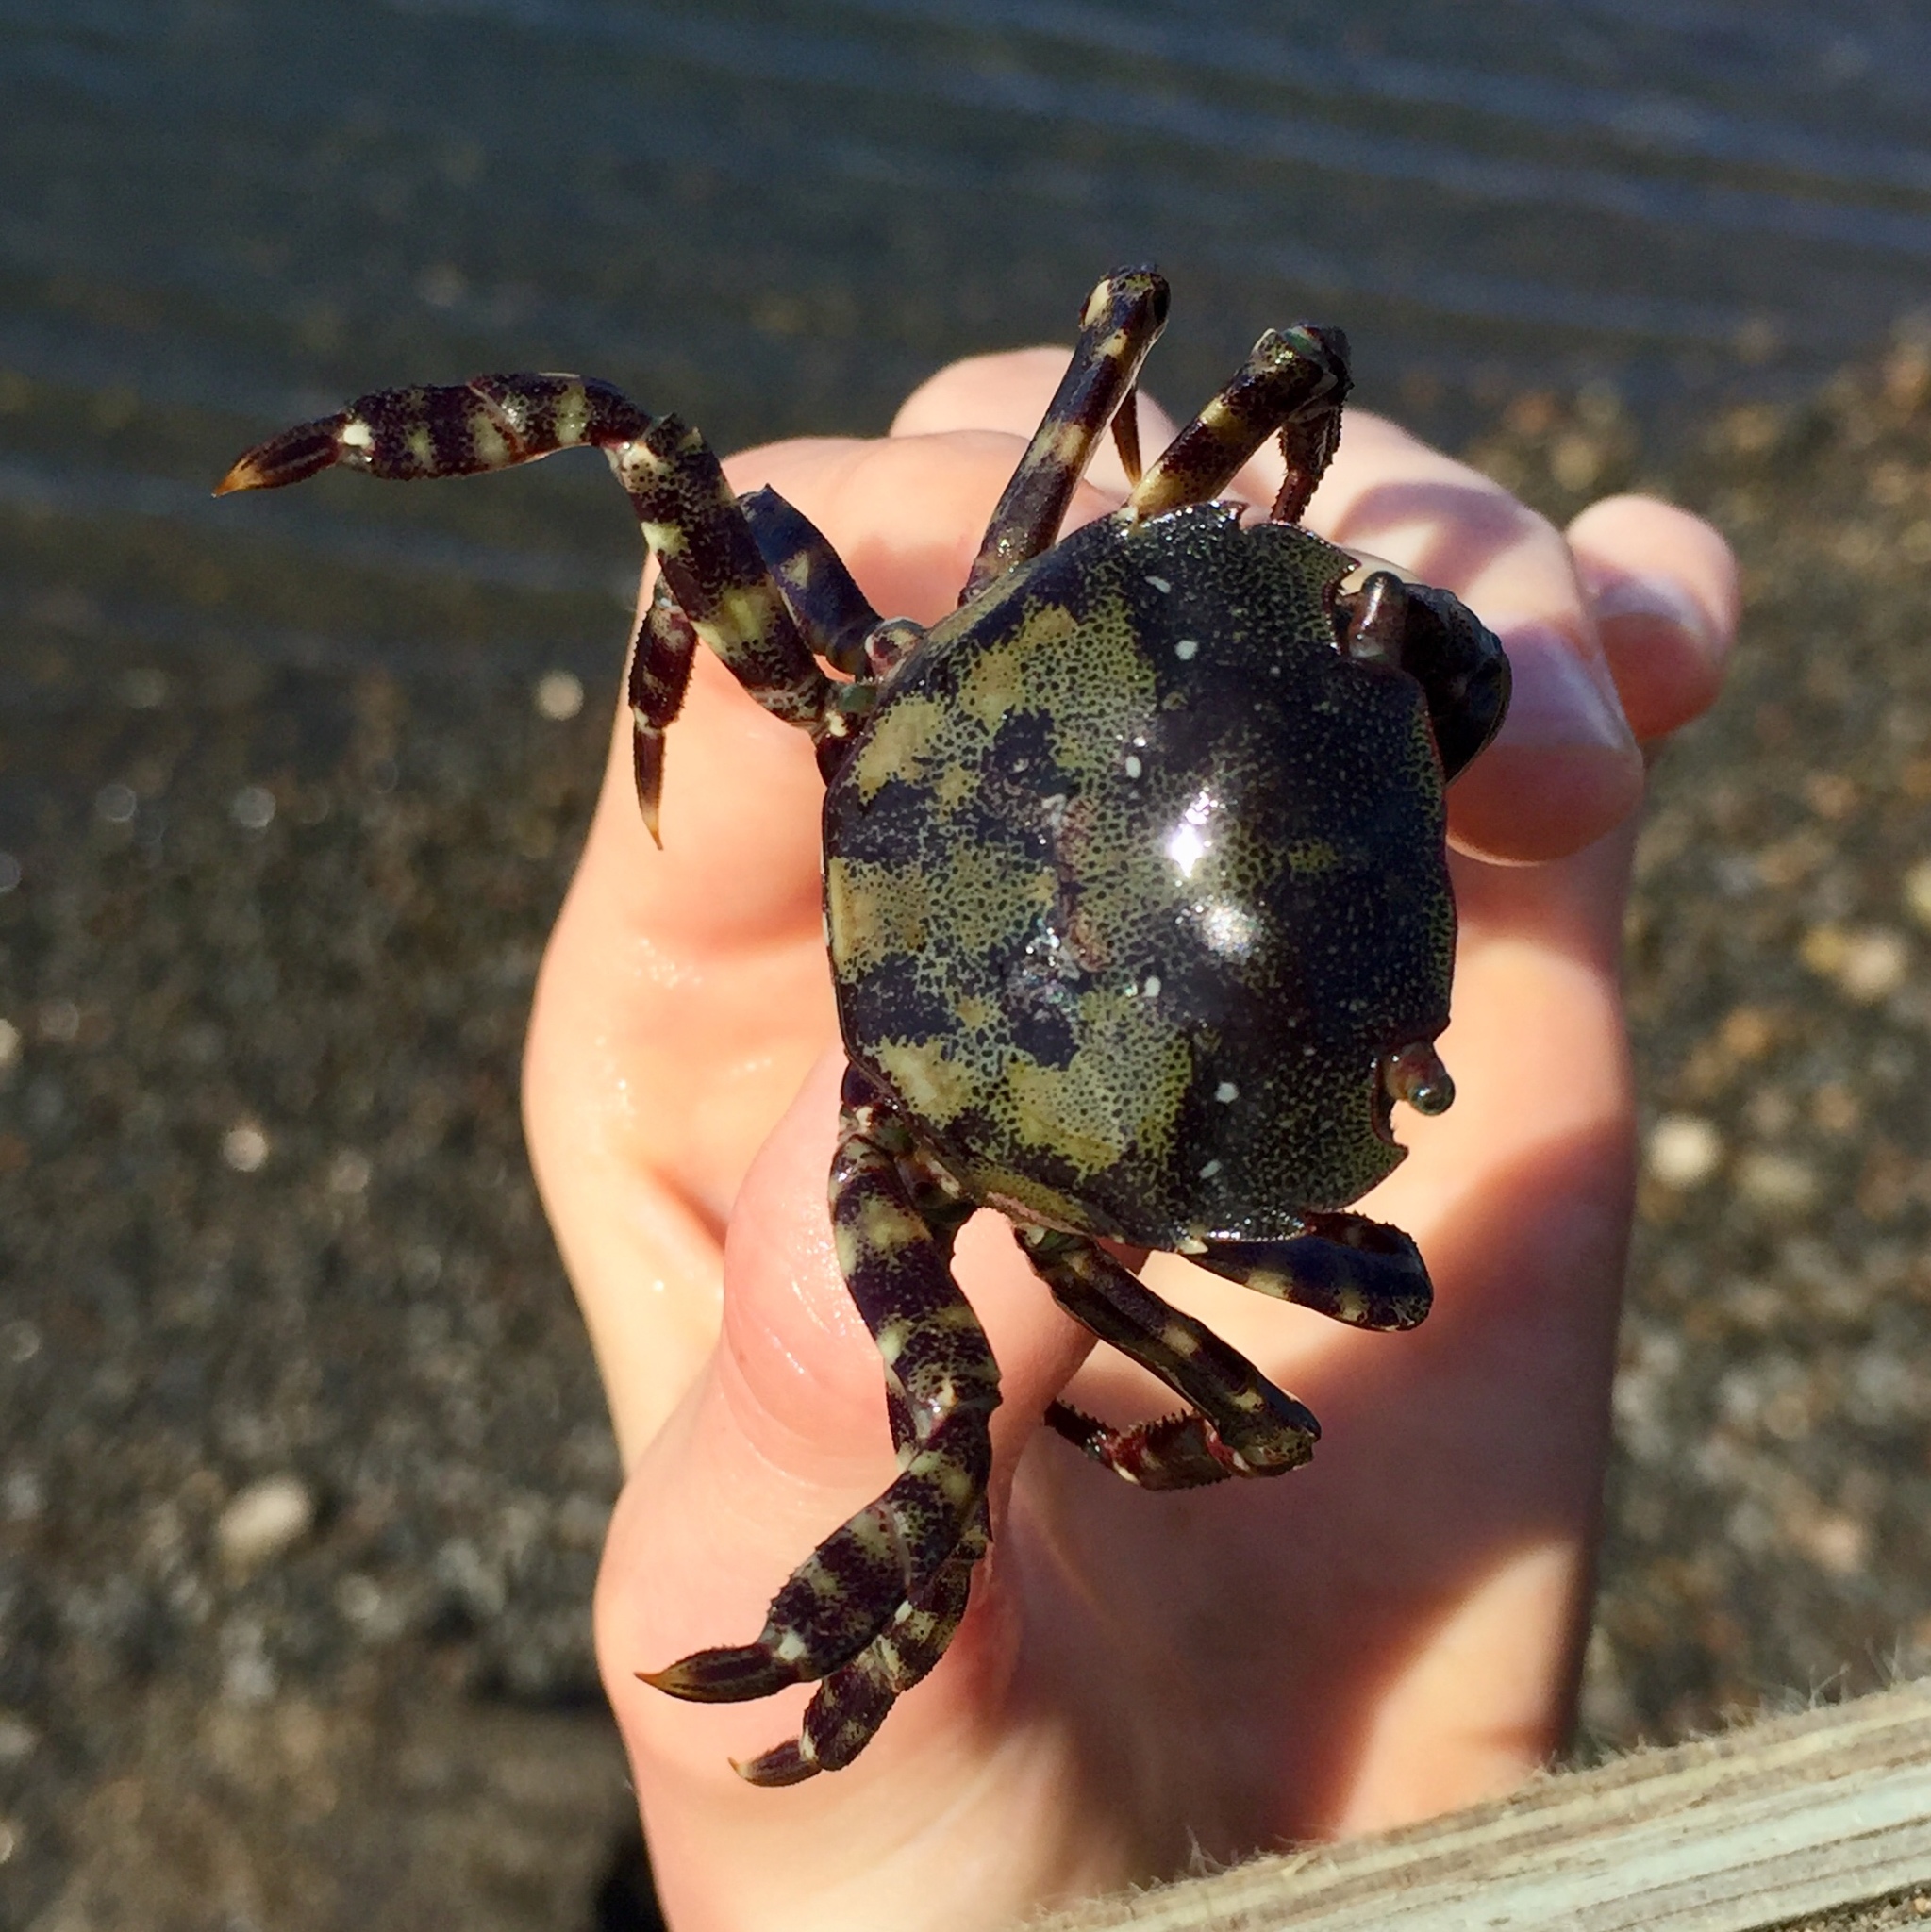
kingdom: Animalia
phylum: Arthropoda
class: Malacostraca
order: Decapoda
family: Varunidae
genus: Hemigrapsus
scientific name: Hemigrapsus sanguineus
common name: Asian shore crab
